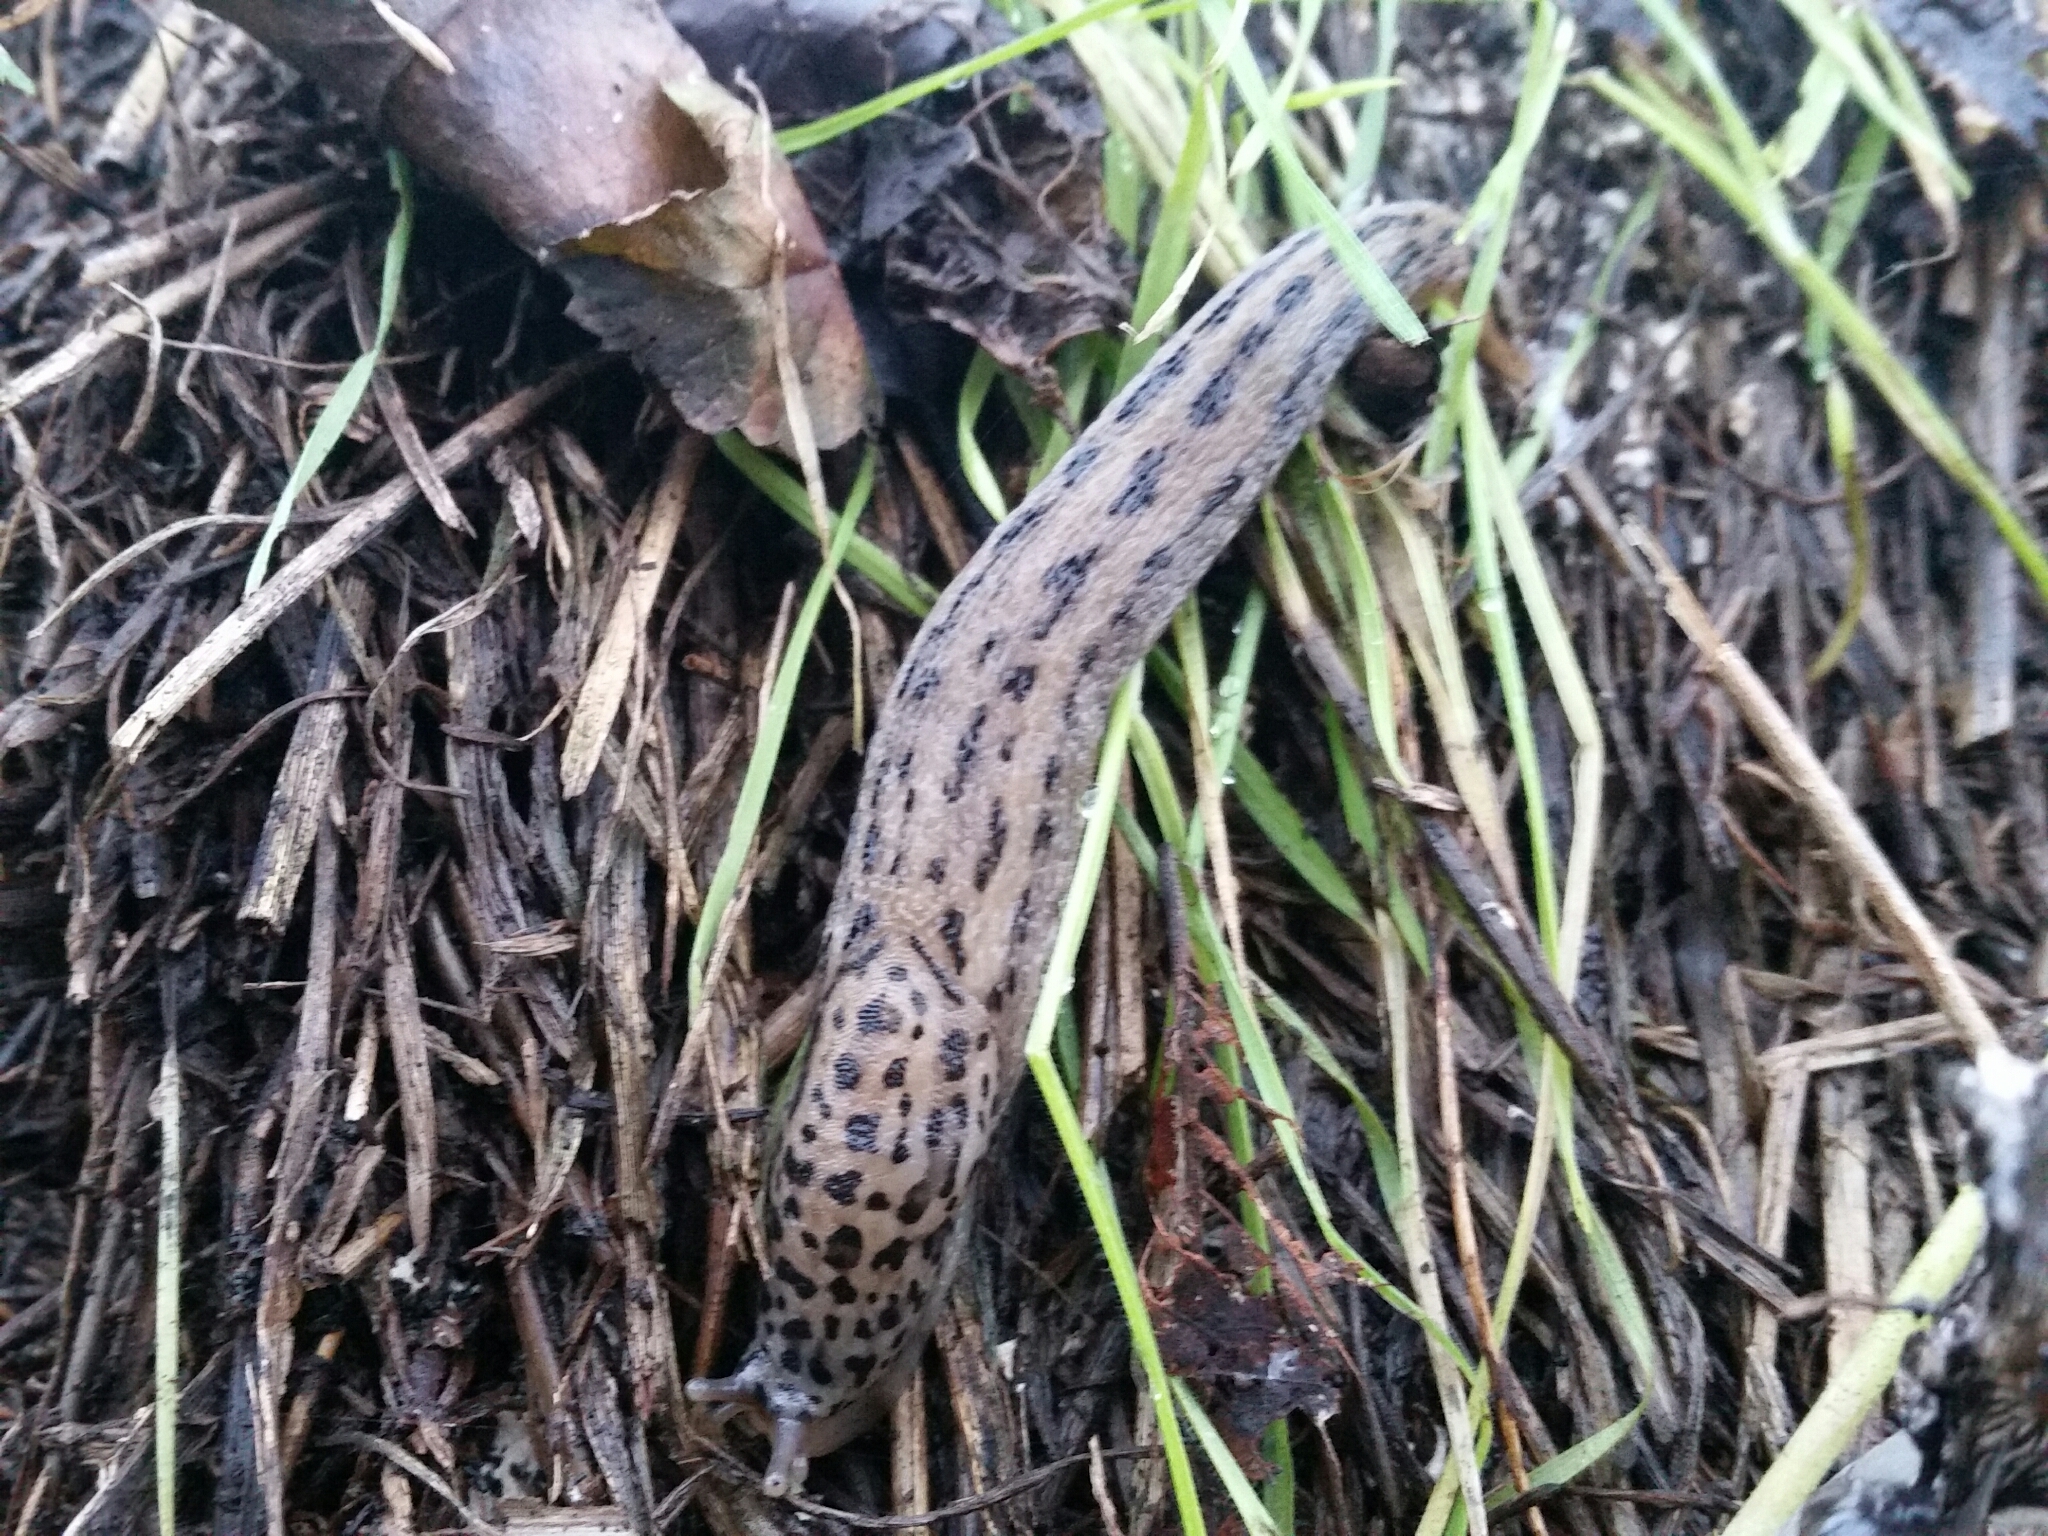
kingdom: Animalia
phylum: Mollusca
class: Gastropoda
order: Stylommatophora
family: Limacidae
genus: Limax
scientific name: Limax maximus
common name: Great grey slug
